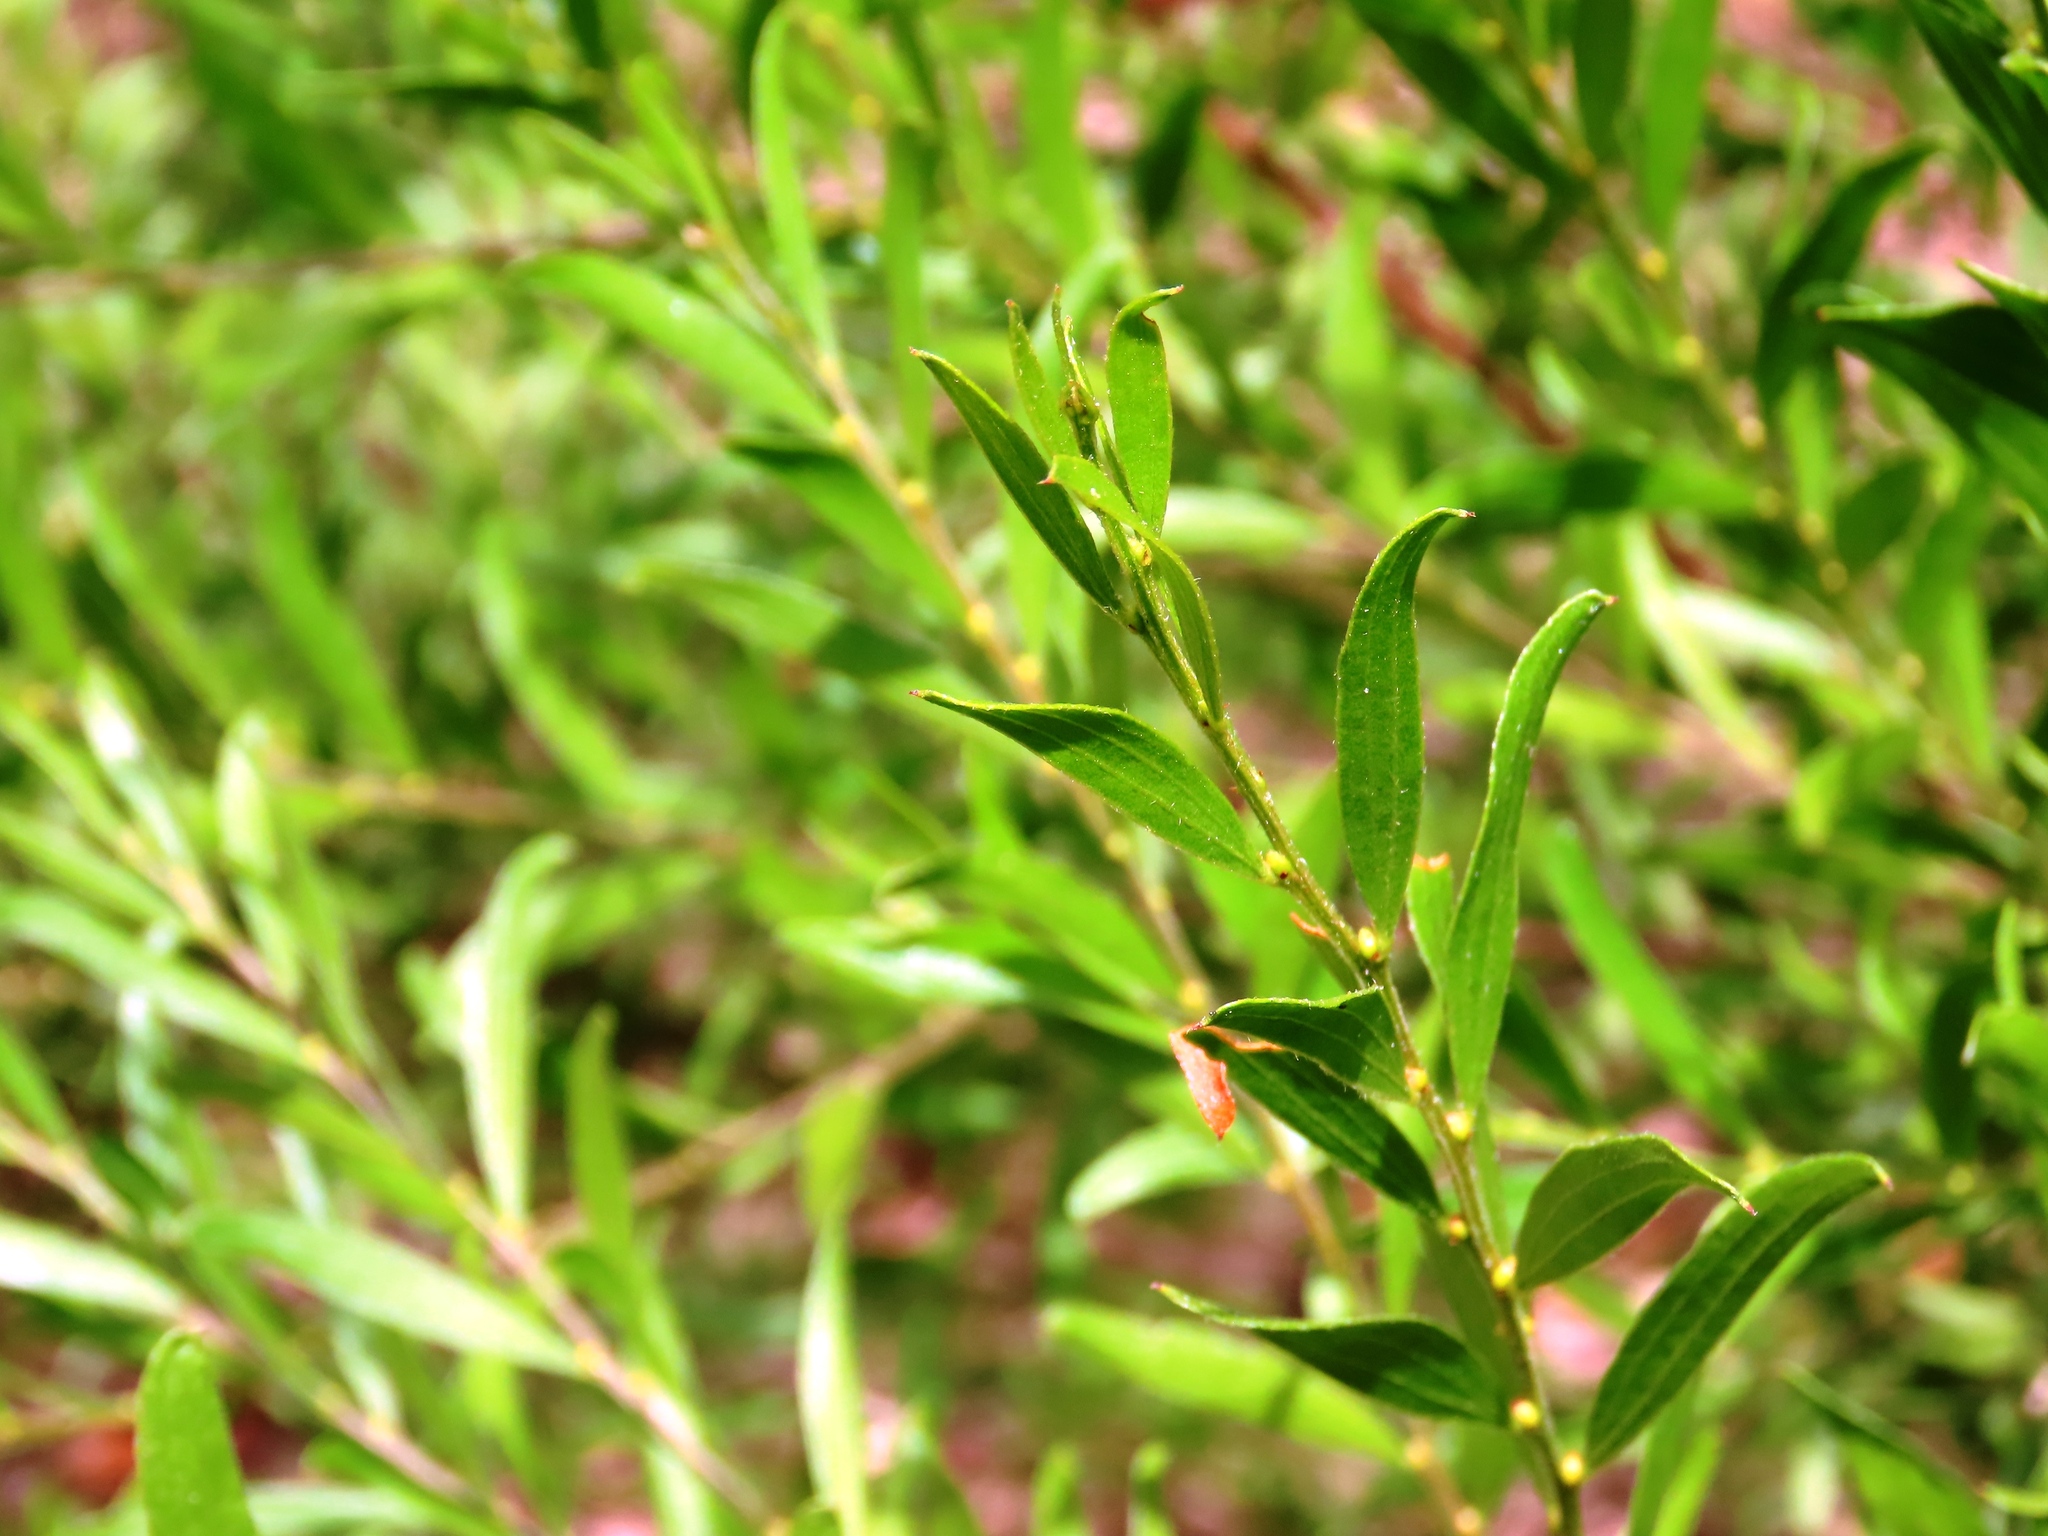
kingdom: Plantae
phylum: Tracheophyta
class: Magnoliopsida
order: Fabales
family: Fabaceae
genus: Acacia
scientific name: Acacia rostriformis
